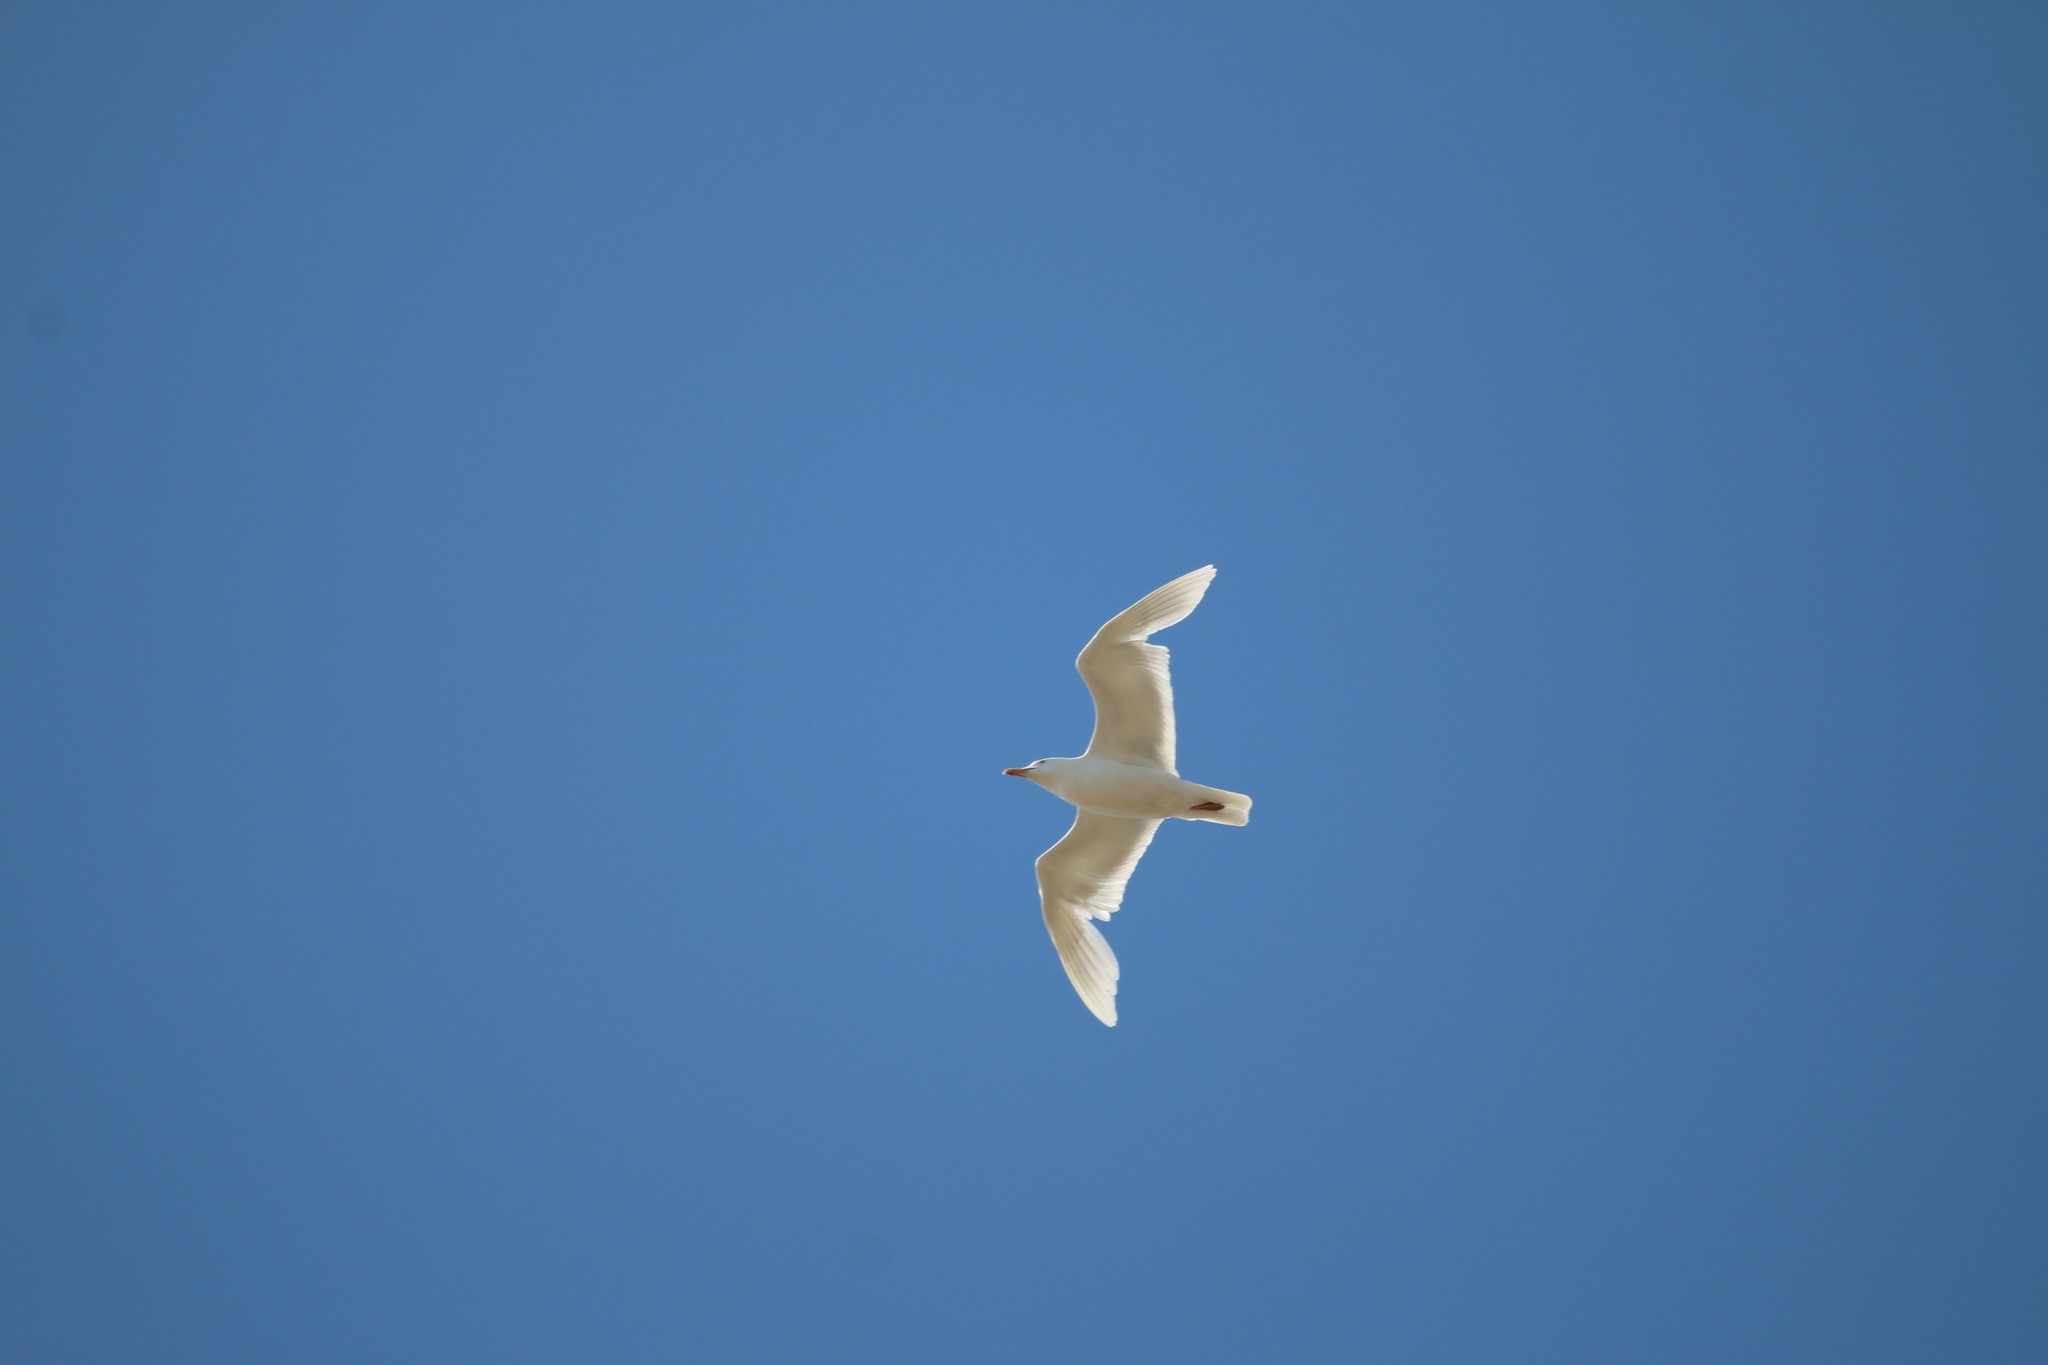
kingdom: Animalia
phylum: Chordata
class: Aves
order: Charadriiformes
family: Laridae
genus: Larus
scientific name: Larus hyperboreus
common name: Glaucous gull
